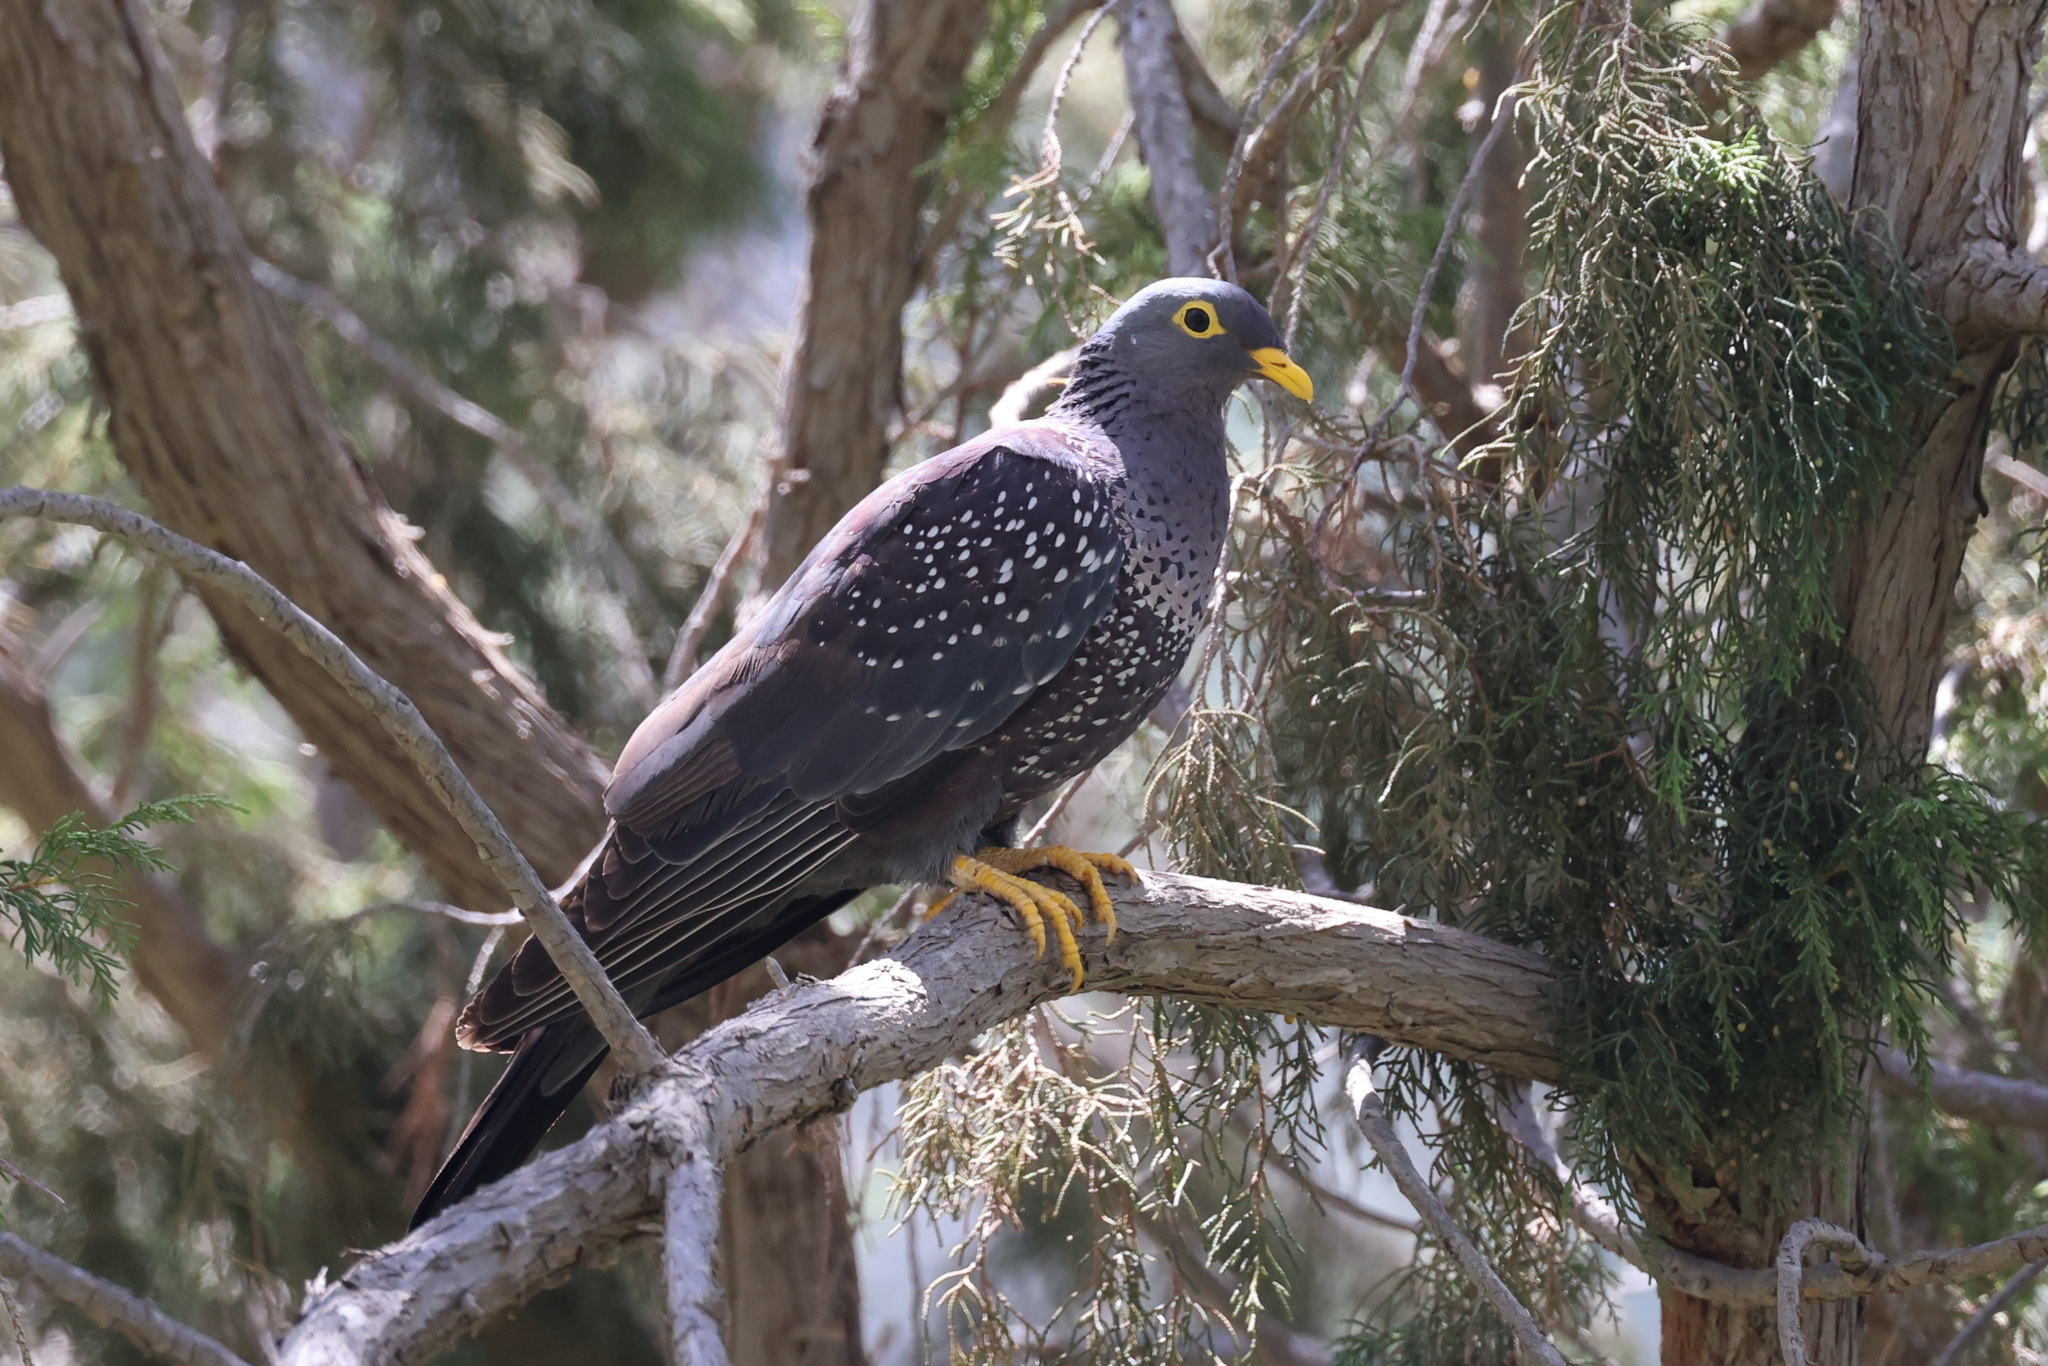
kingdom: Animalia
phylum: Chordata
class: Aves
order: Columbiformes
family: Columbidae
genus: Columba
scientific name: Columba arquatrix
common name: African olive pigeon
